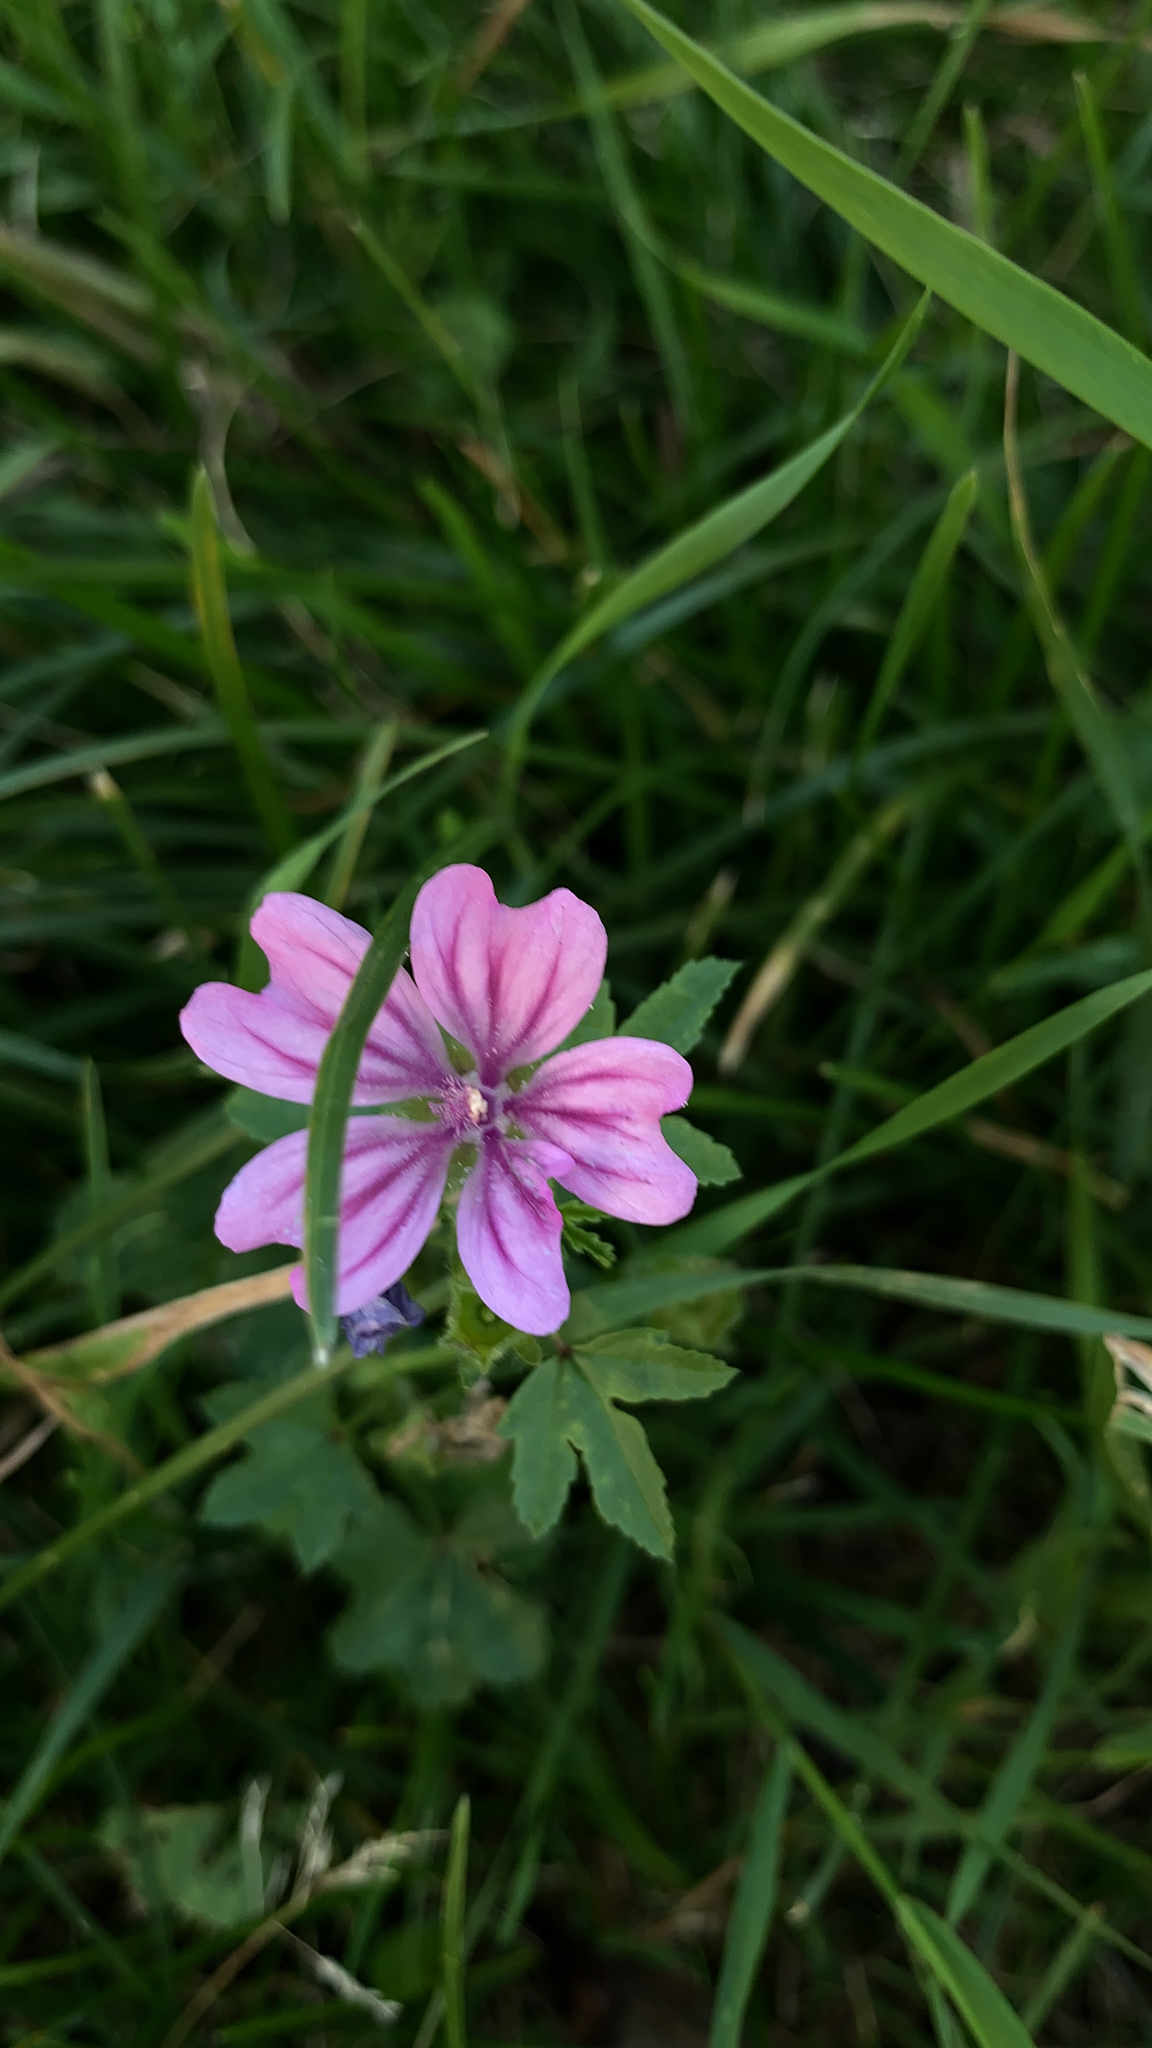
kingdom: Plantae
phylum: Tracheophyta
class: Magnoliopsida
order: Malvales
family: Malvaceae
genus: Malva
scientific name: Malva sylvestris
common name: Common mallow
